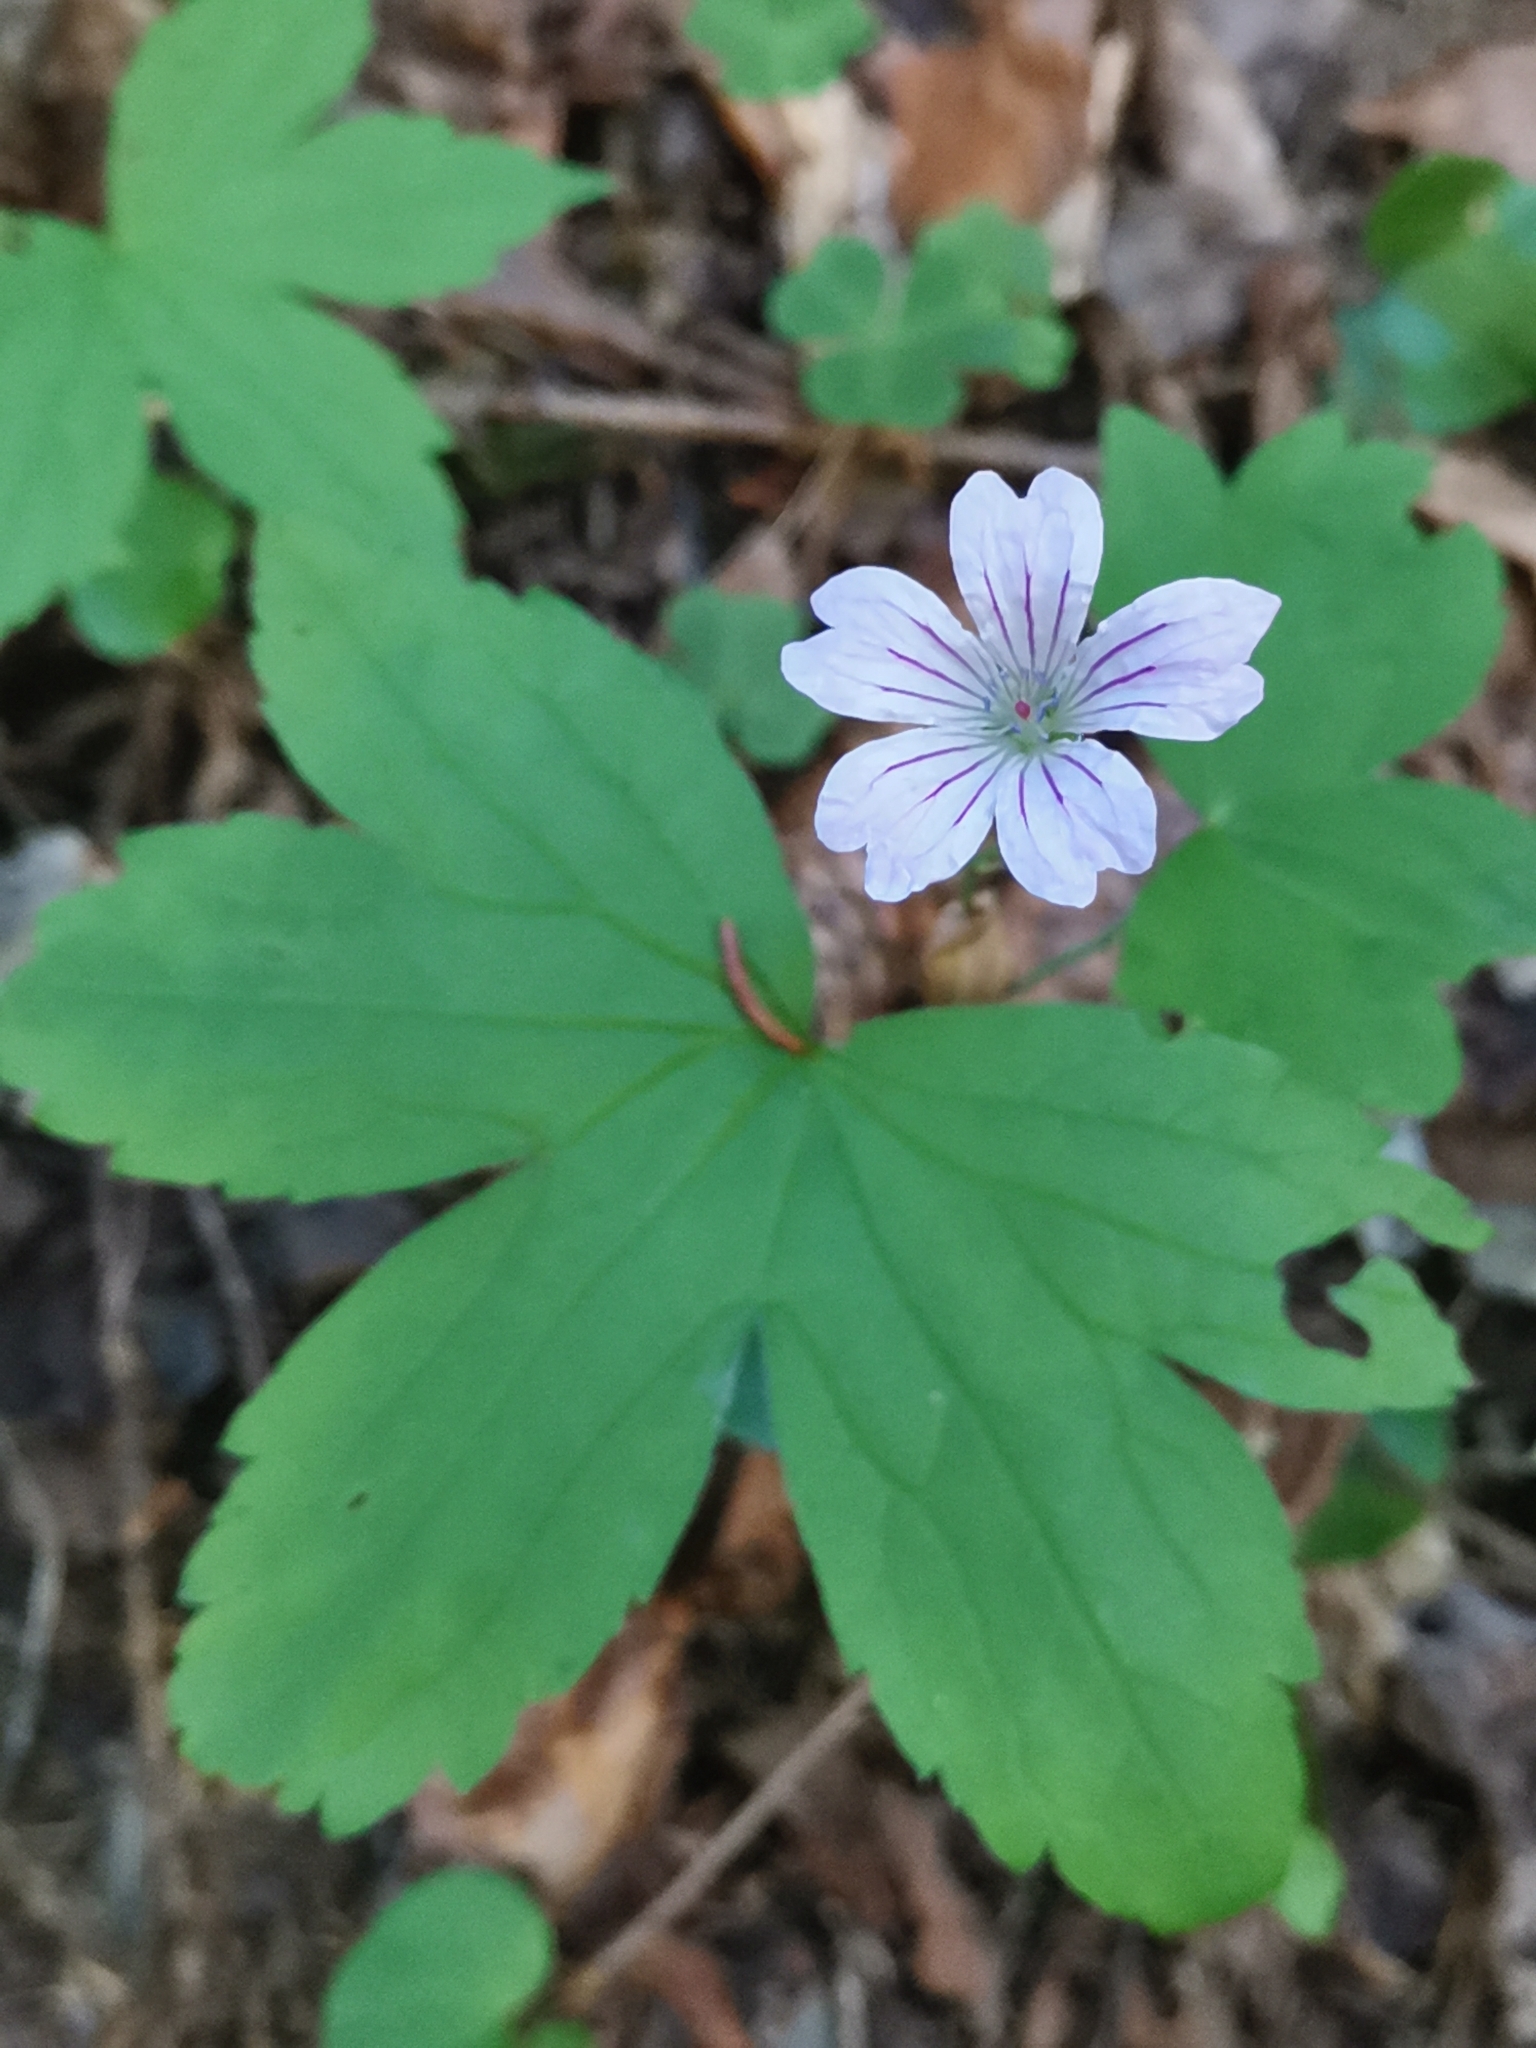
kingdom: Plantae
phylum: Tracheophyta
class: Magnoliopsida
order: Geraniales
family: Geraniaceae
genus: Geranium
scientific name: Geranium nodosum
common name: Knotted crane's-bill
